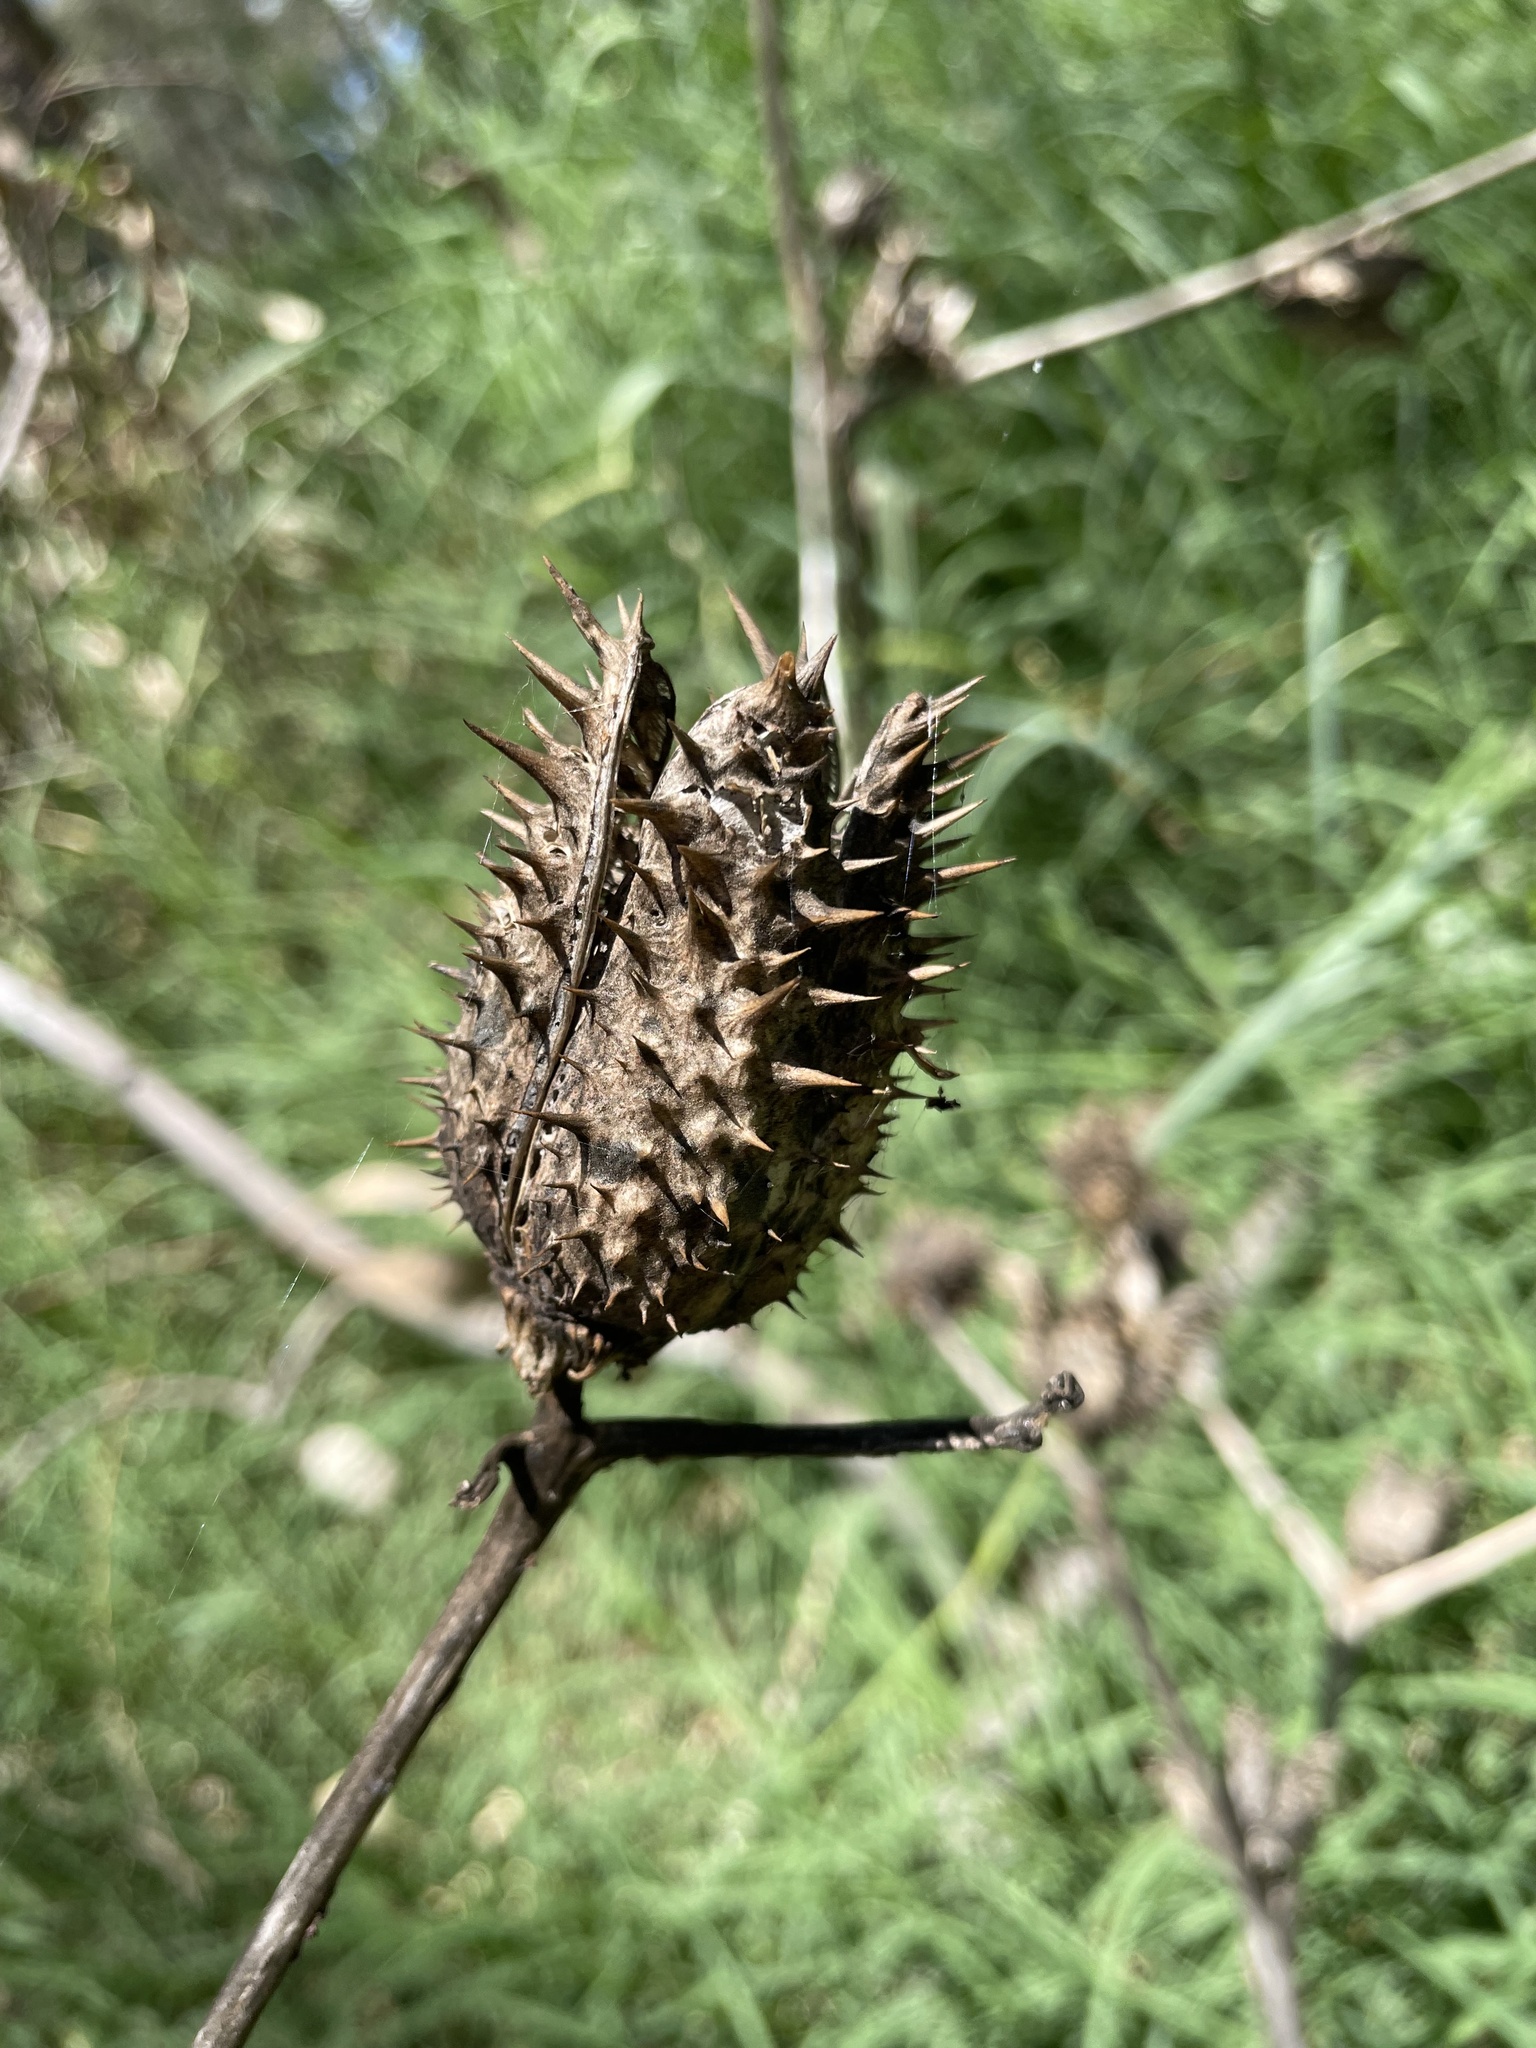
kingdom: Plantae
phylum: Tracheophyta
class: Magnoliopsida
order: Solanales
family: Solanaceae
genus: Datura
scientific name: Datura stramonium
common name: Thorn-apple
